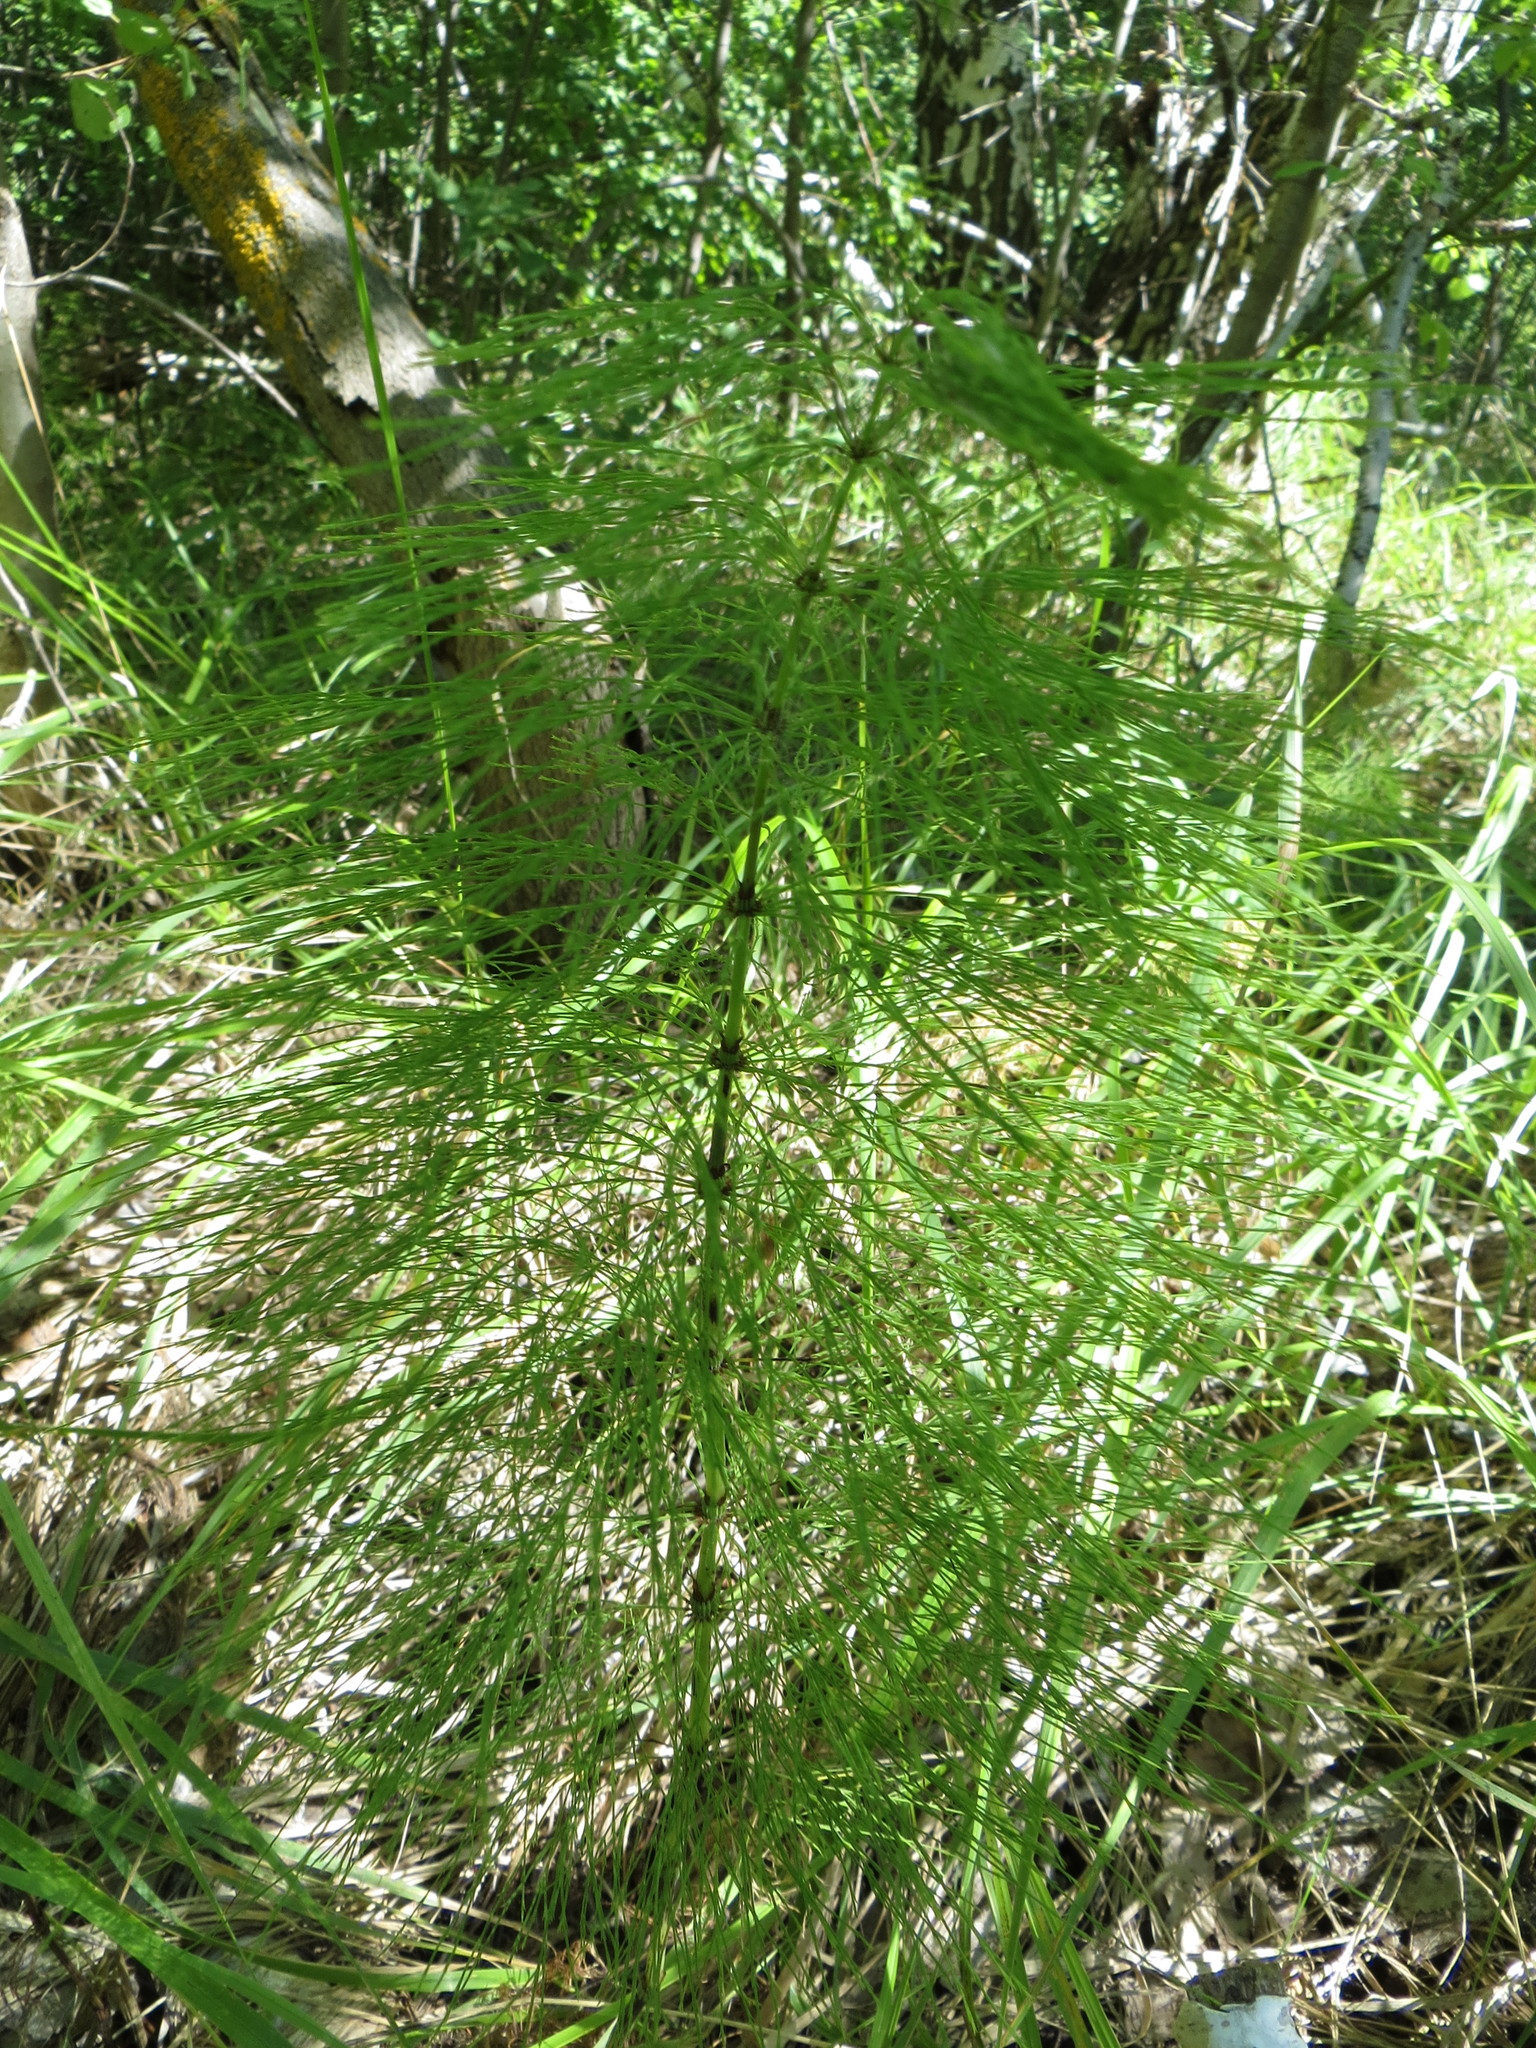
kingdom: Plantae
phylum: Tracheophyta
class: Polypodiopsida
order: Equisetales
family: Equisetaceae
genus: Equisetum
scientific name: Equisetum sylvaticum
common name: Wood horsetail
